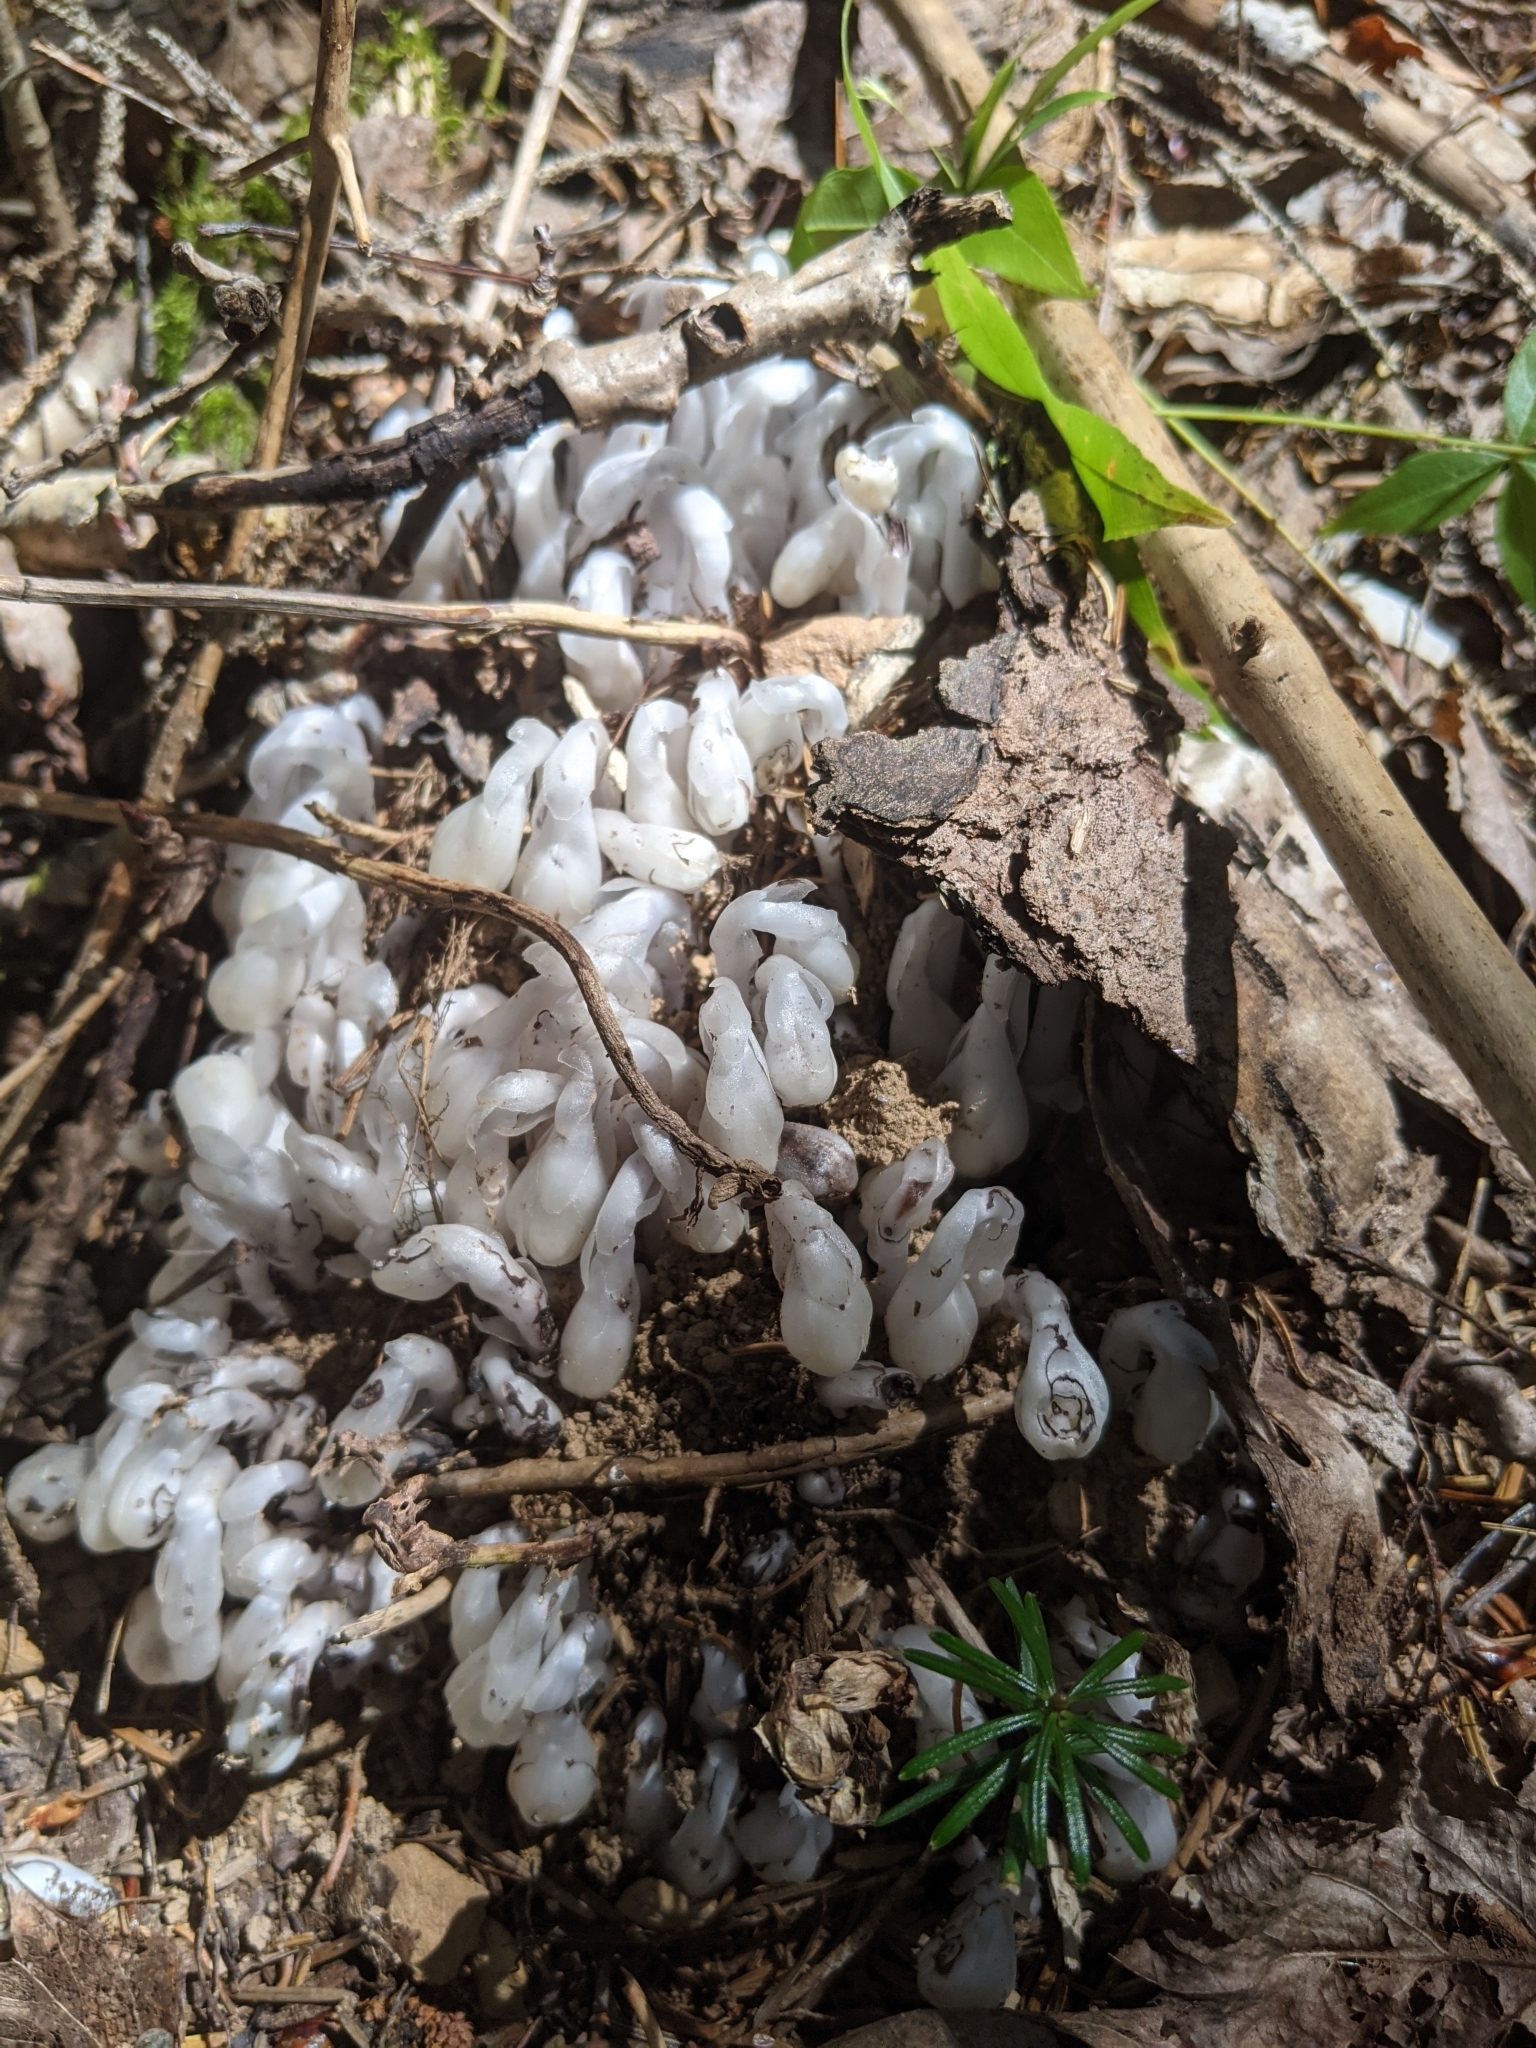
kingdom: Plantae
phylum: Tracheophyta
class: Magnoliopsida
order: Ericales
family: Ericaceae
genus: Monotropa
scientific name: Monotropa uniflora
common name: Convulsion root
